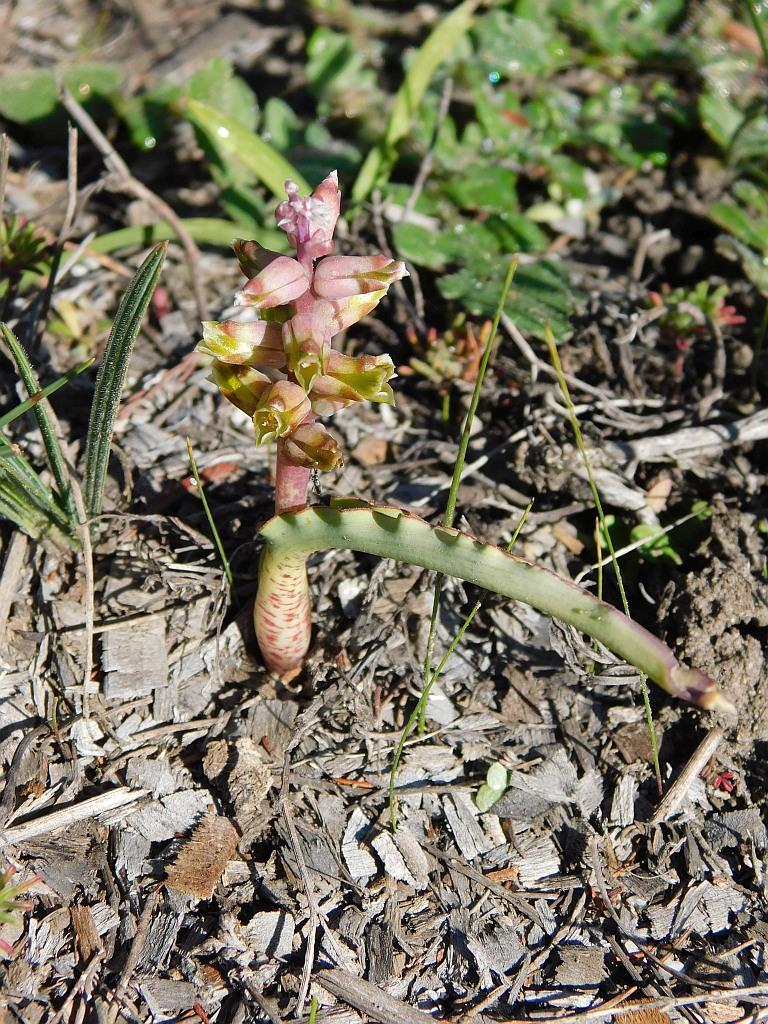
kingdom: Plantae
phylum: Tracheophyta
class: Liliopsida
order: Asparagales
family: Asparagaceae
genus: Lachenalia
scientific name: Lachenalia mutabilis
